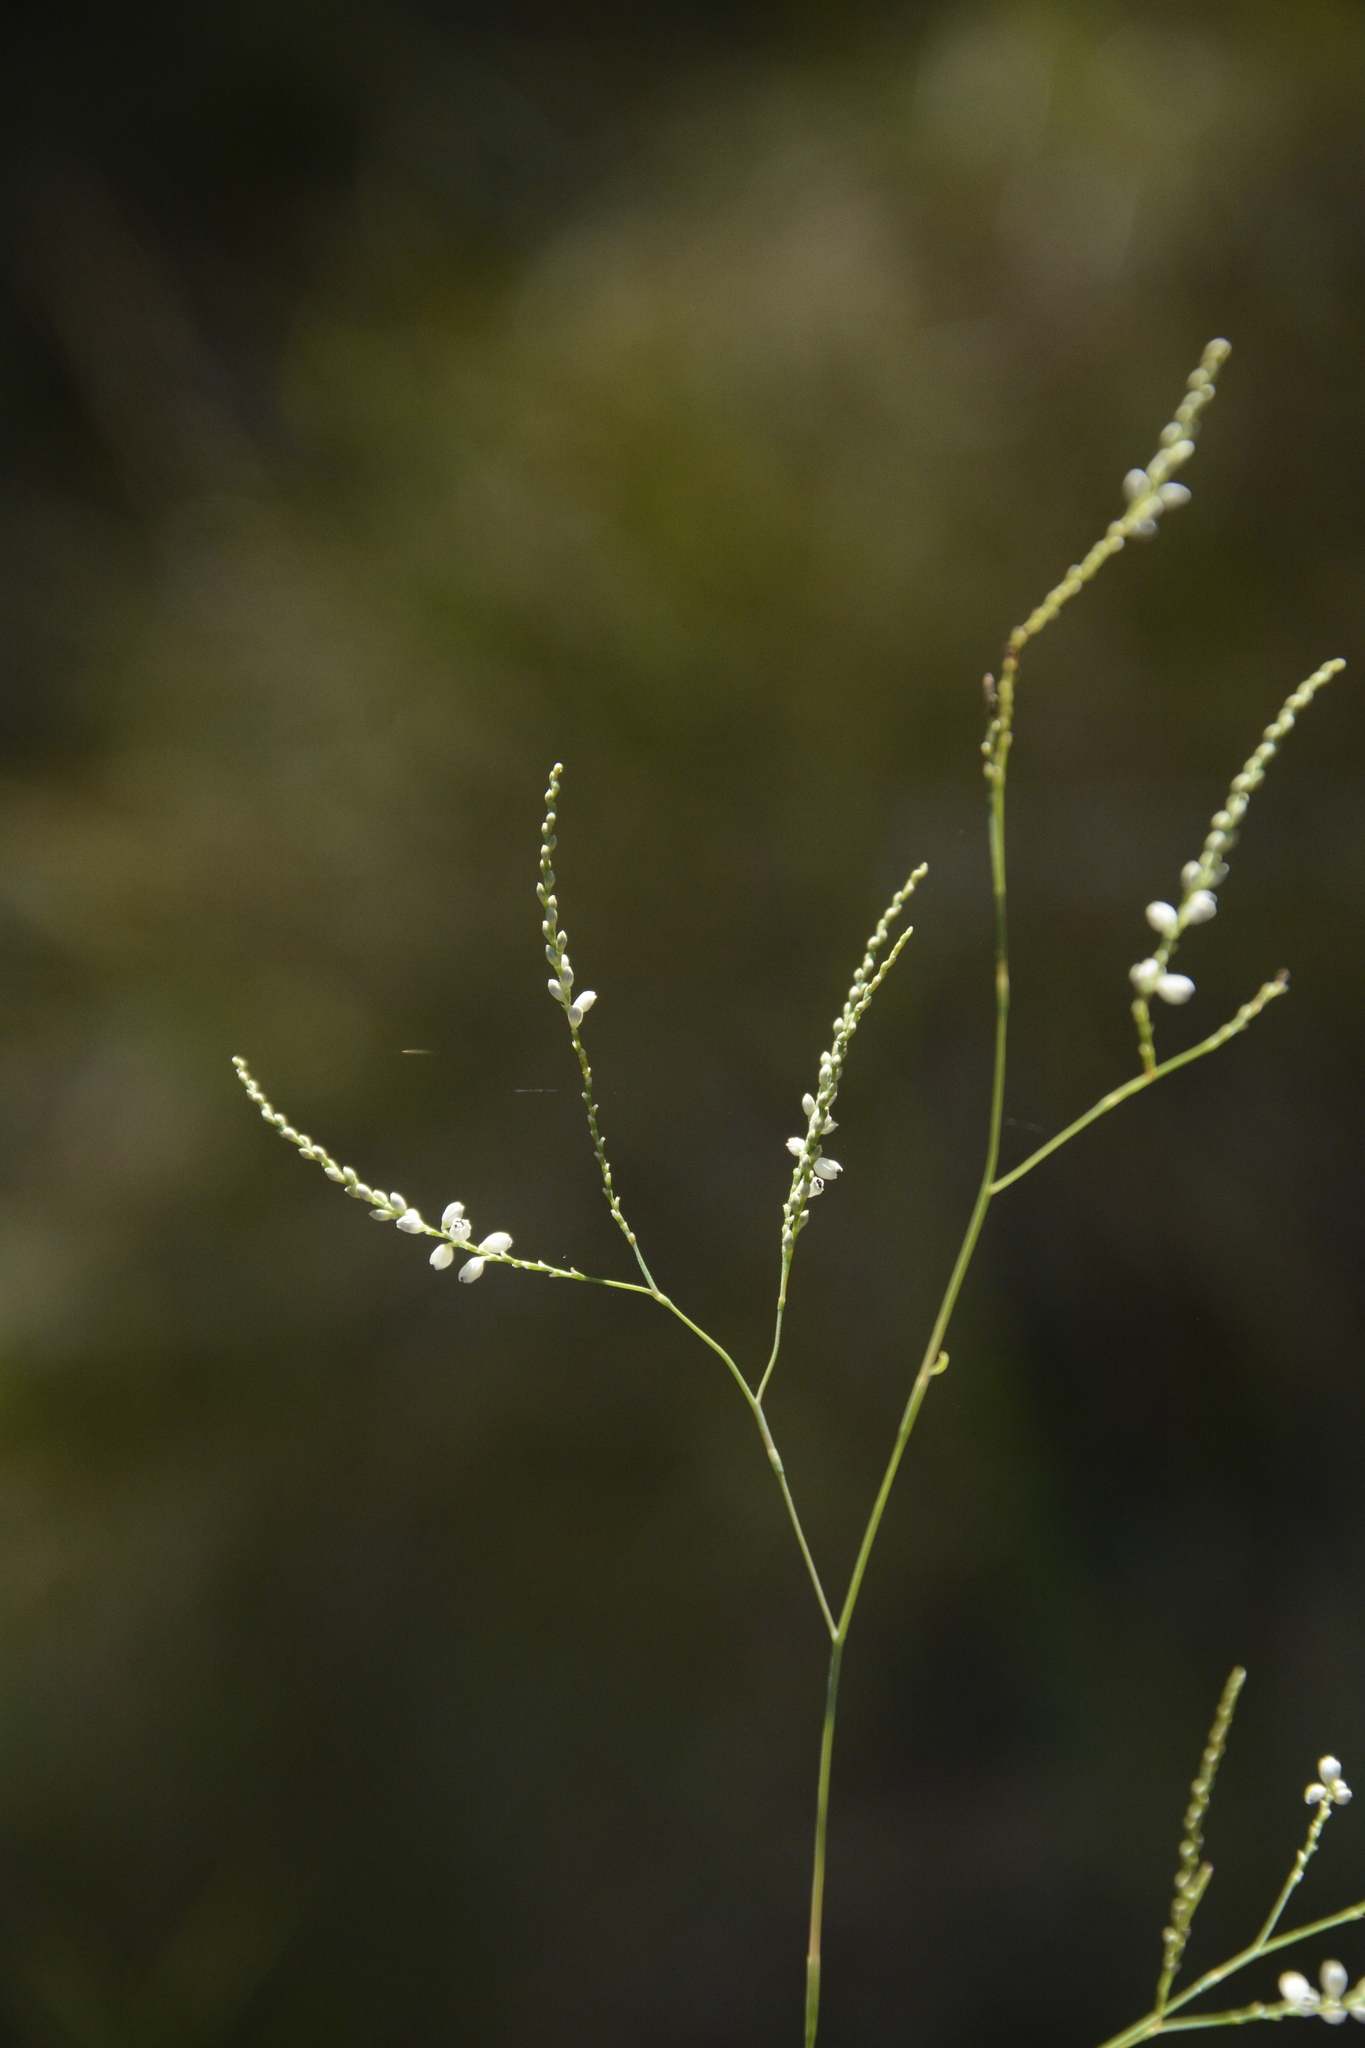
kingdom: Plantae
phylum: Tracheophyta
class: Magnoliopsida
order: Caryophyllales
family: Polygonaceae
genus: Polygonella
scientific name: Polygonella gracilis
